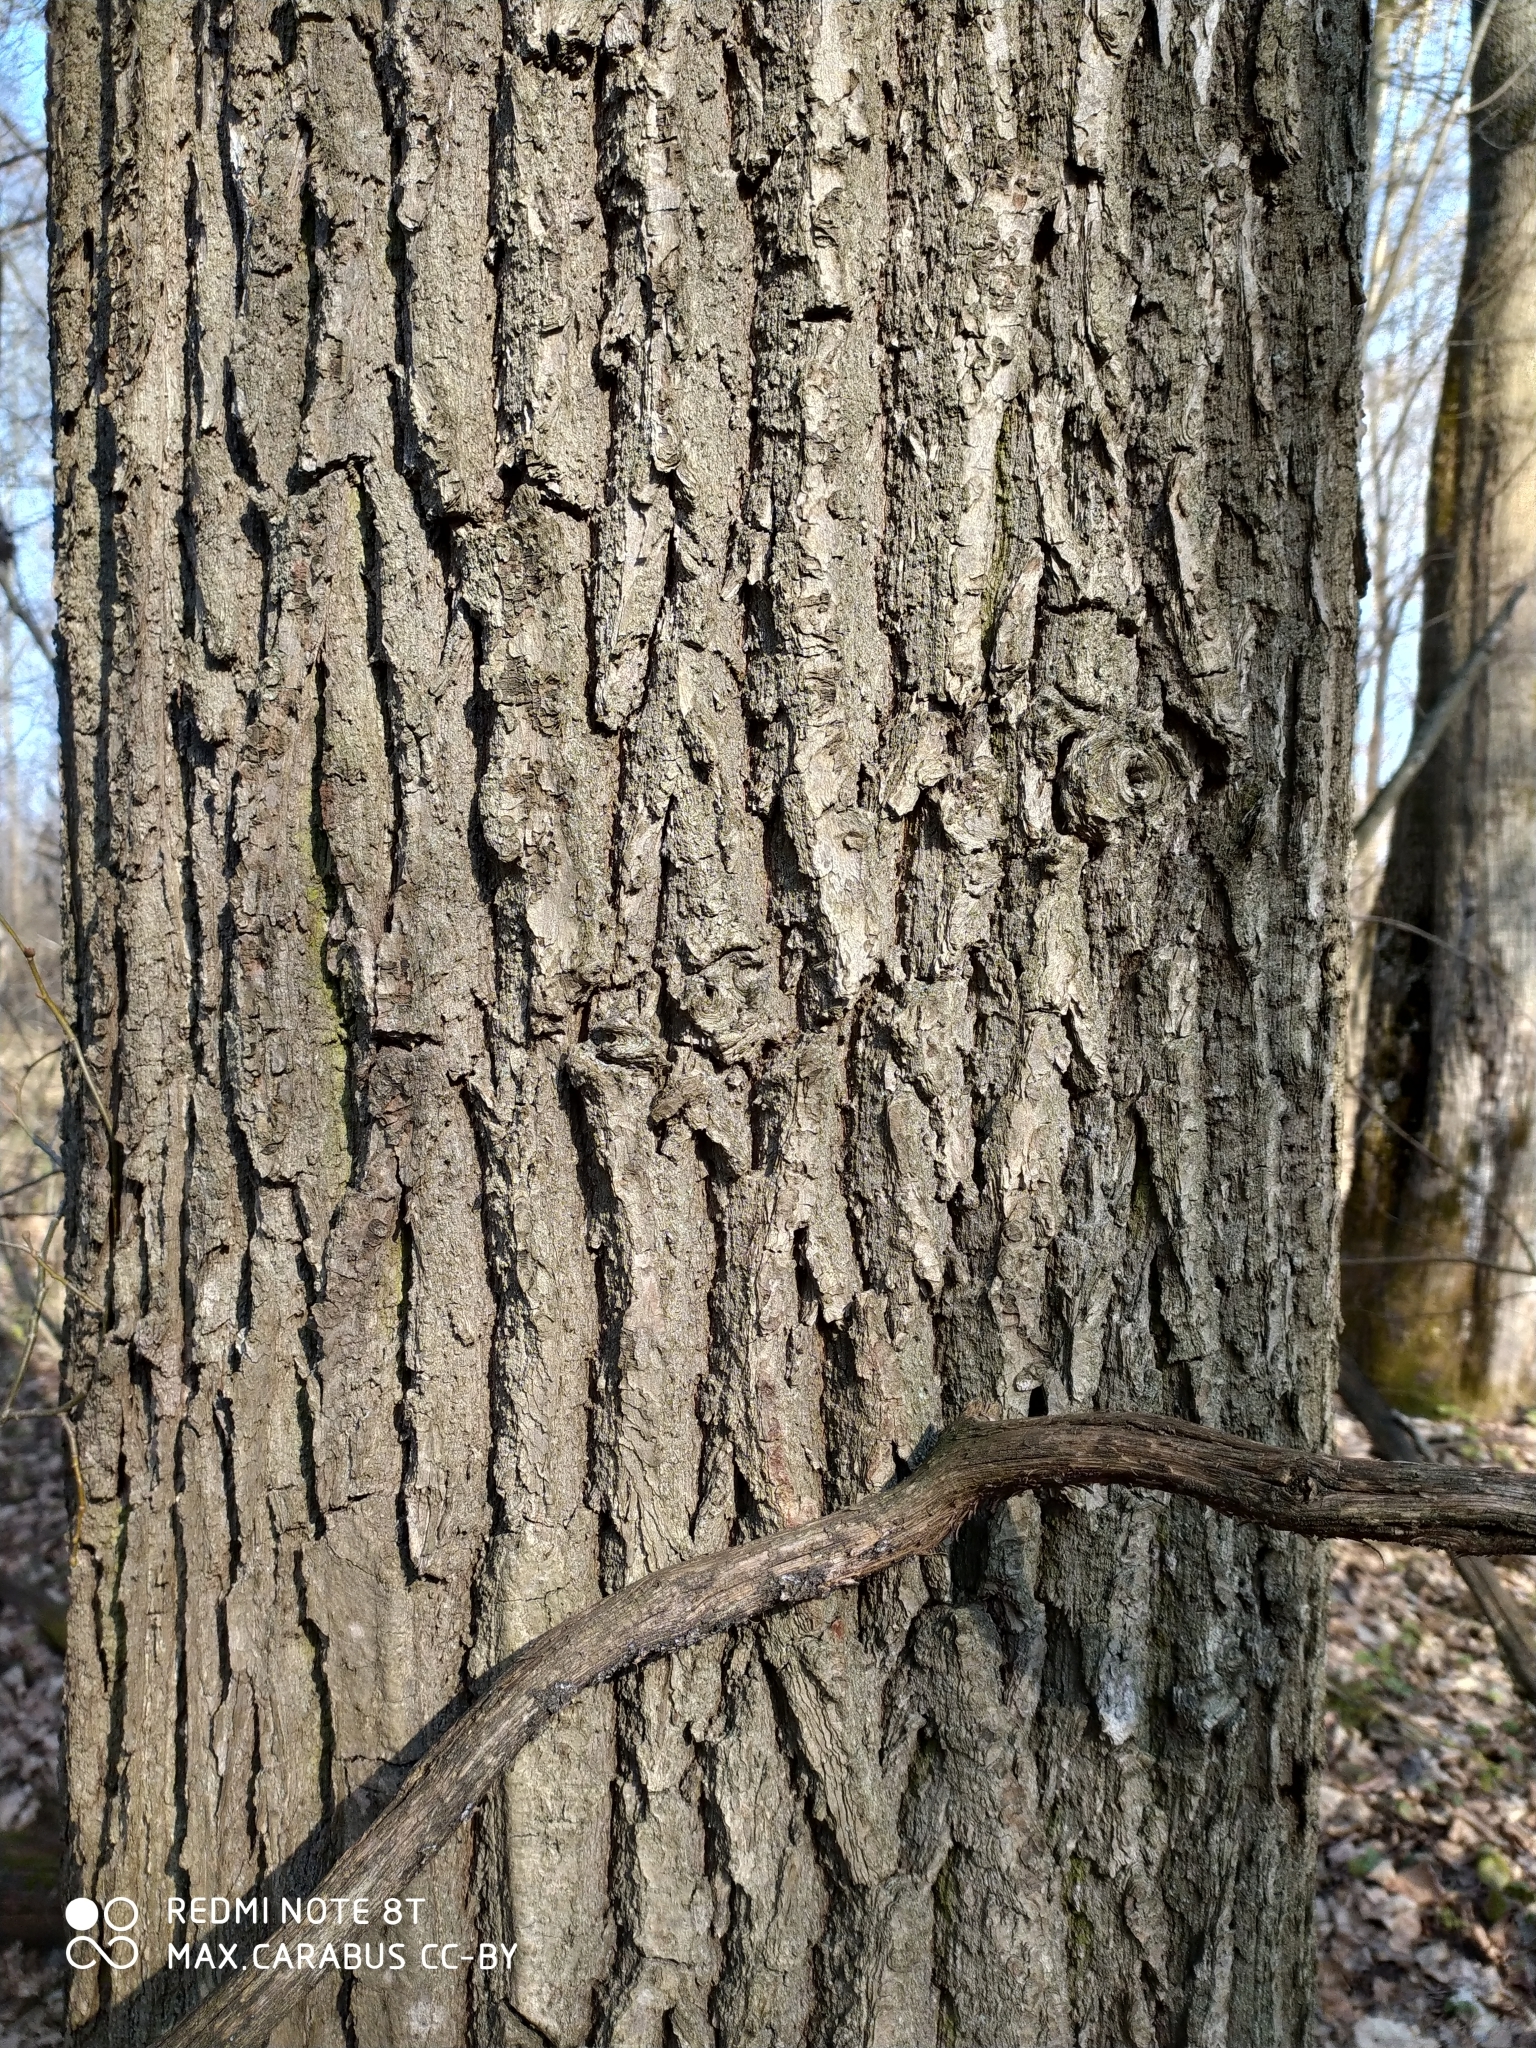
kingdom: Plantae
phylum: Tracheophyta
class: Magnoliopsida
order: Fagales
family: Fagaceae
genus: Quercus
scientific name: Quercus robur
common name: Pedunculate oak
